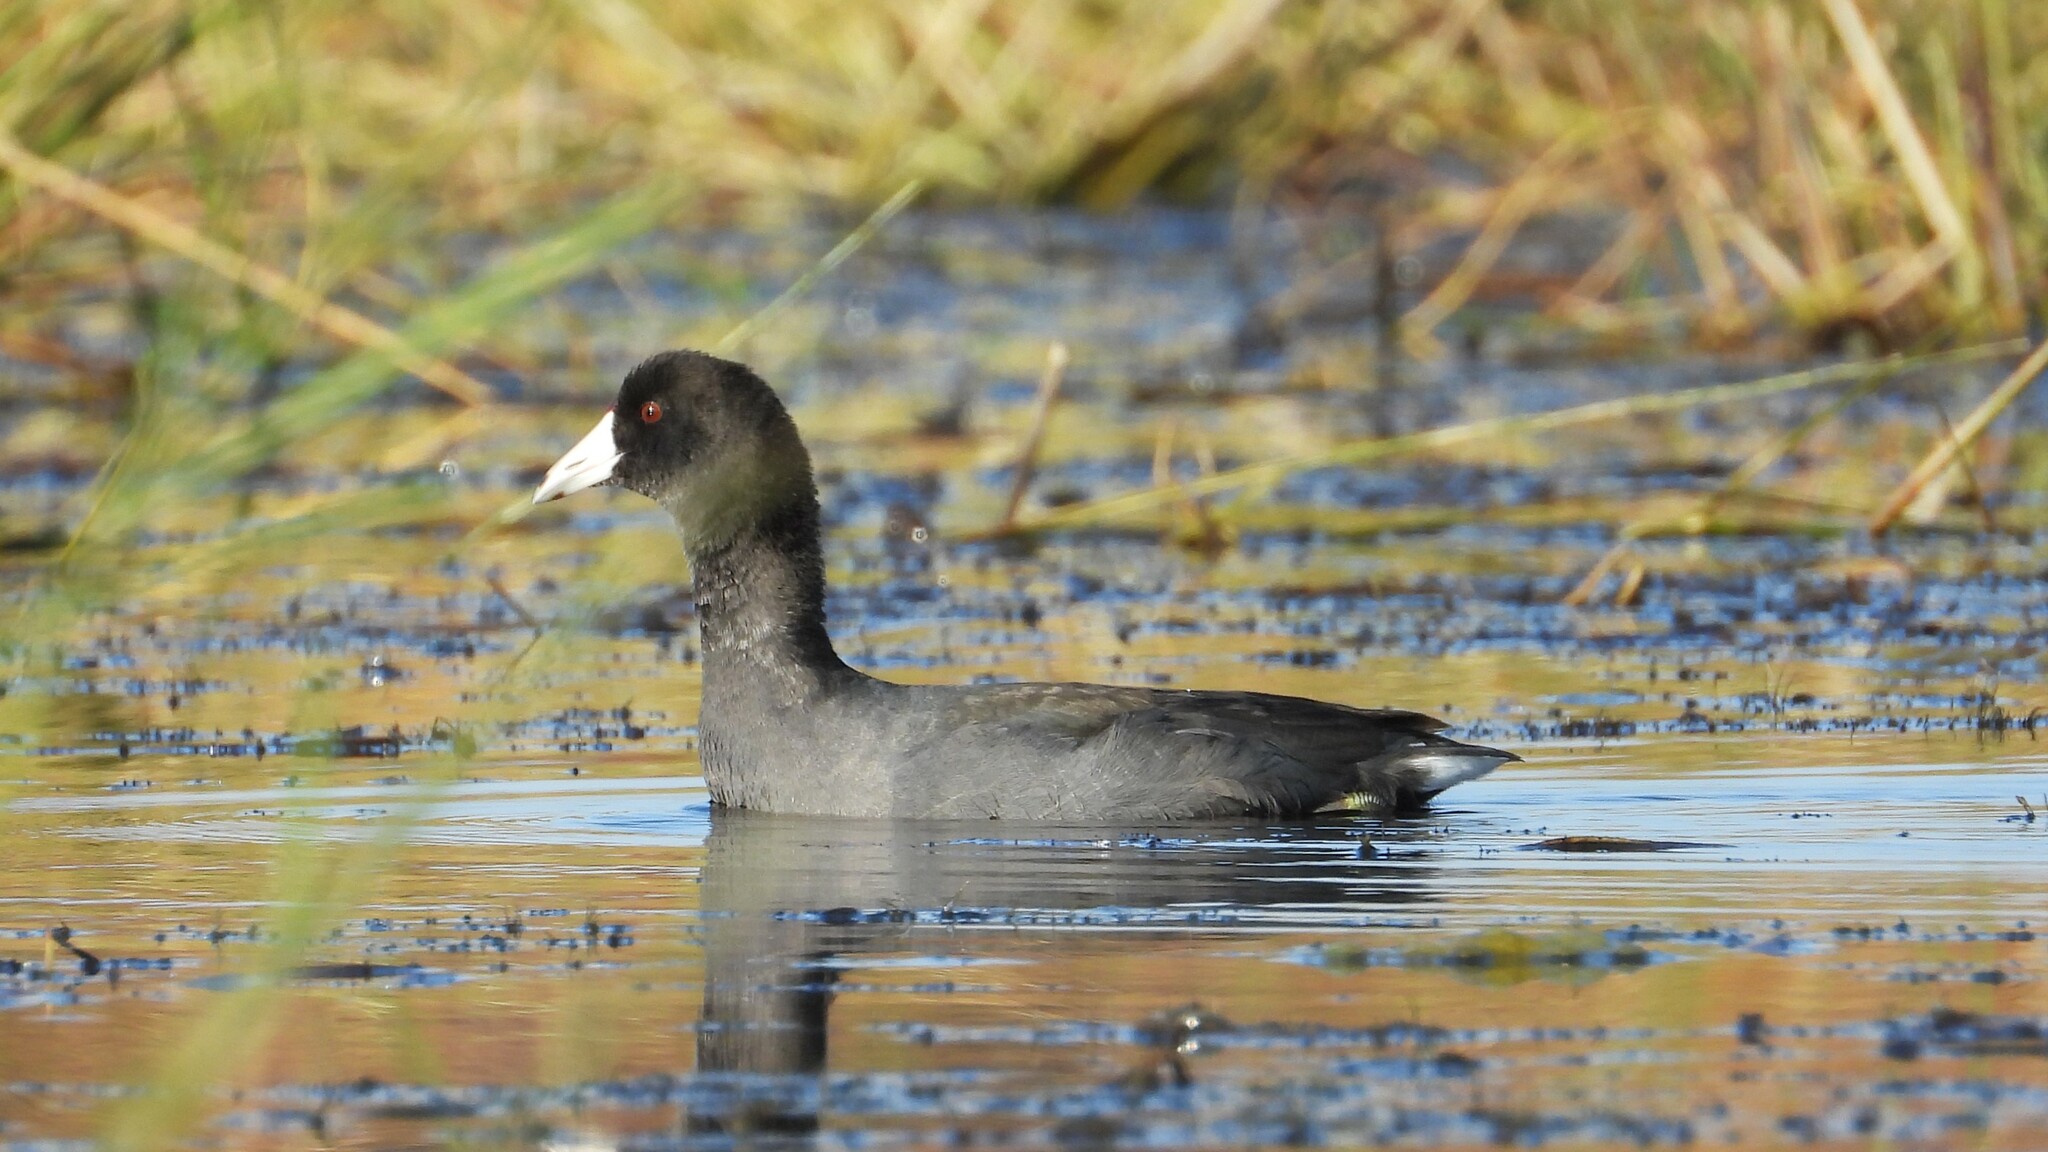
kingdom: Animalia
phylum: Chordata
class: Aves
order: Gruiformes
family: Rallidae
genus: Fulica
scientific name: Fulica americana
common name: American coot
